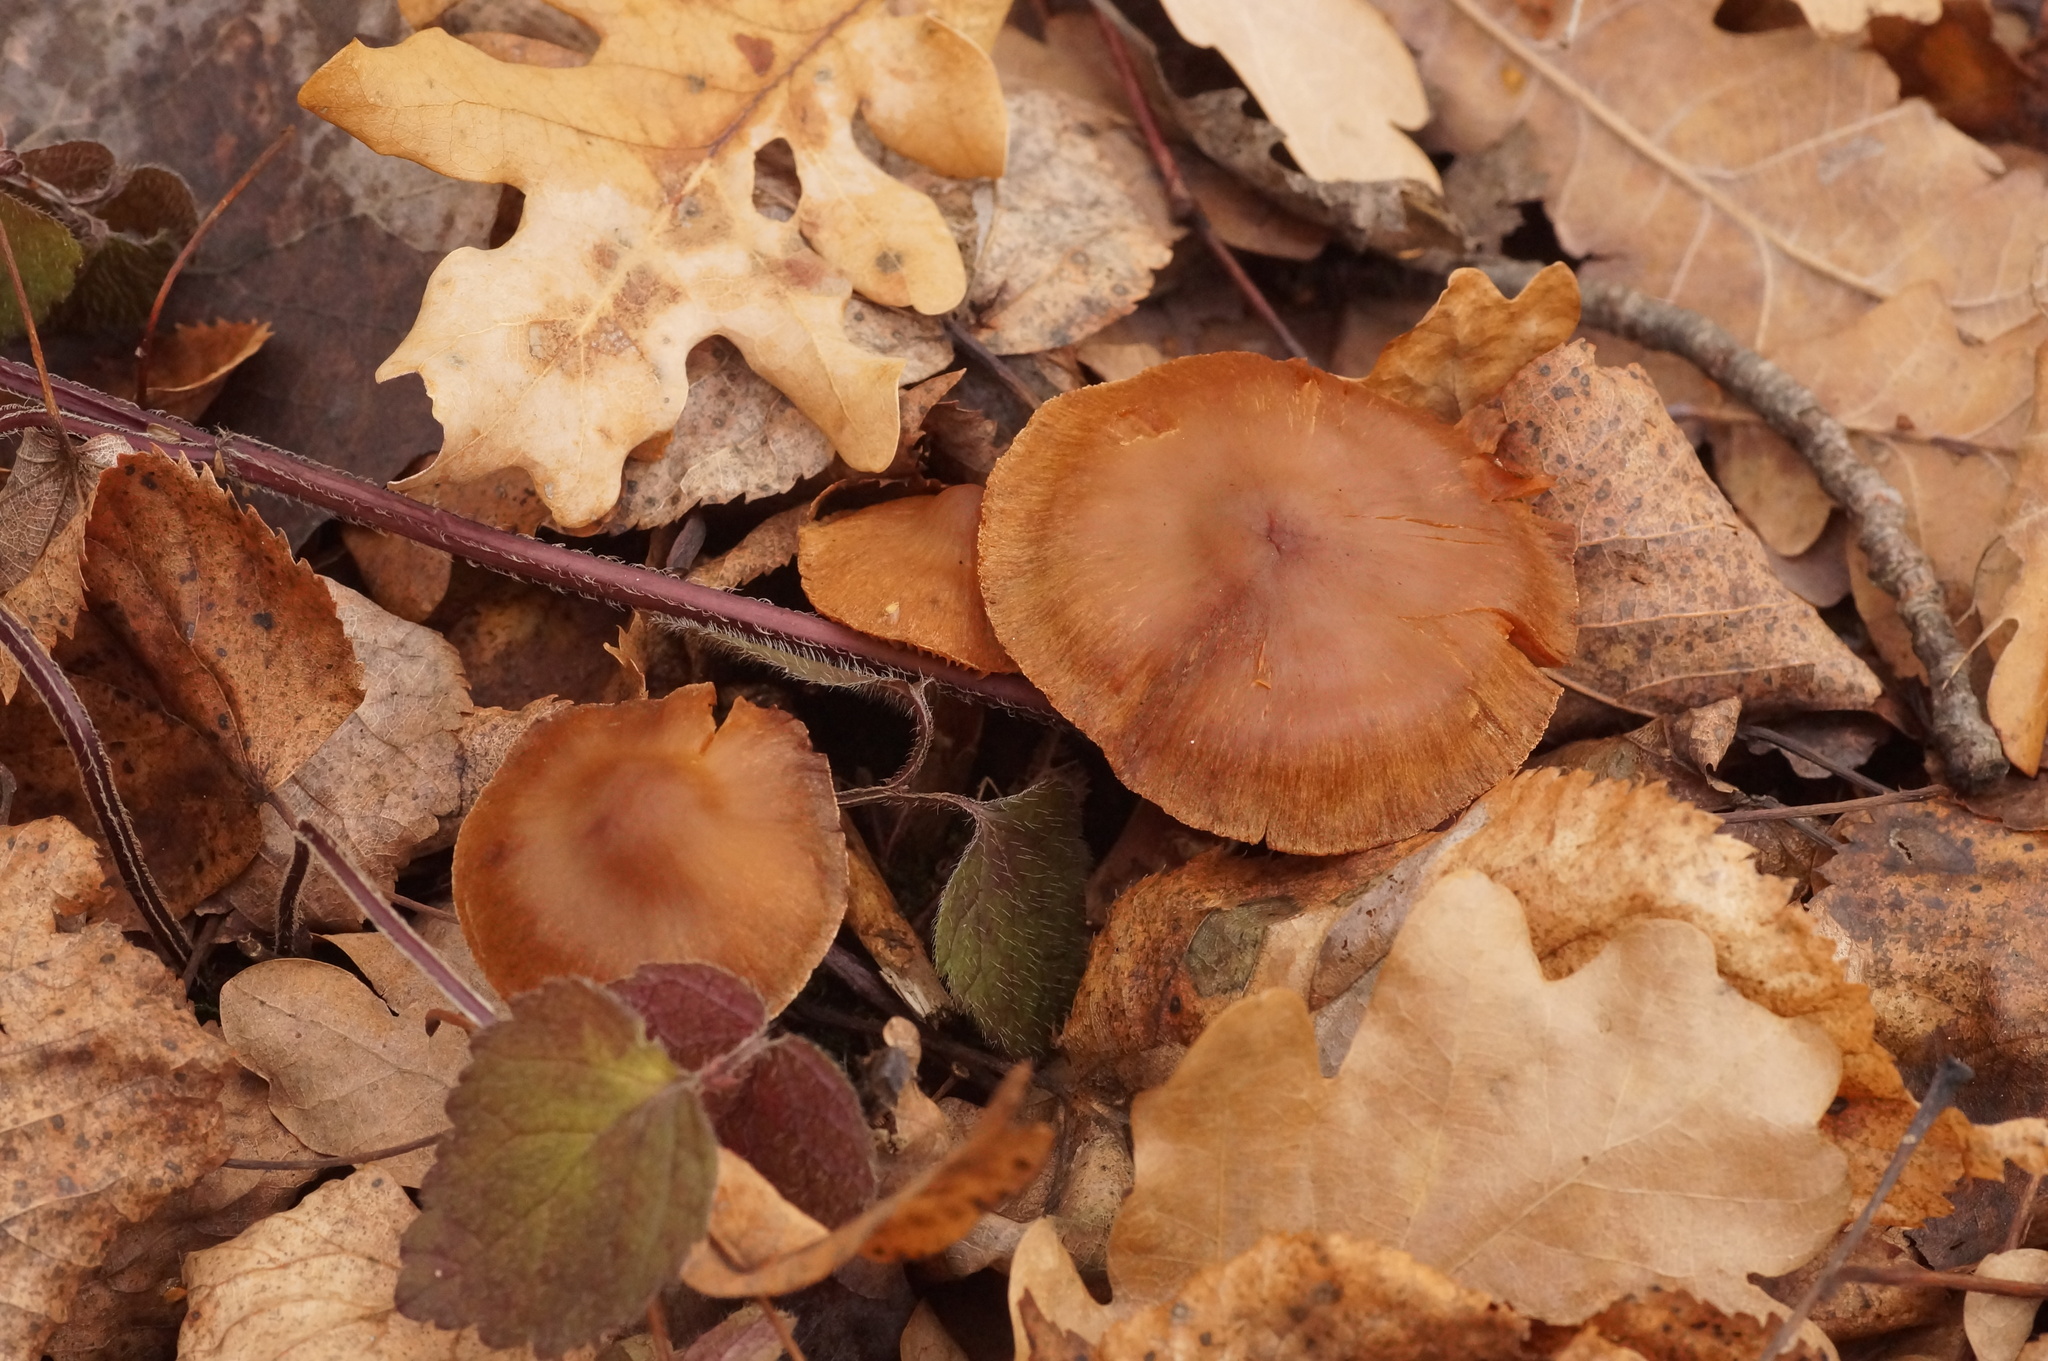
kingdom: Fungi
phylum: Basidiomycota
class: Agaricomycetes
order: Agaricales
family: Tubariaceae
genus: Tubaria
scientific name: Tubaria furfuracea
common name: Scurfy twiglet
